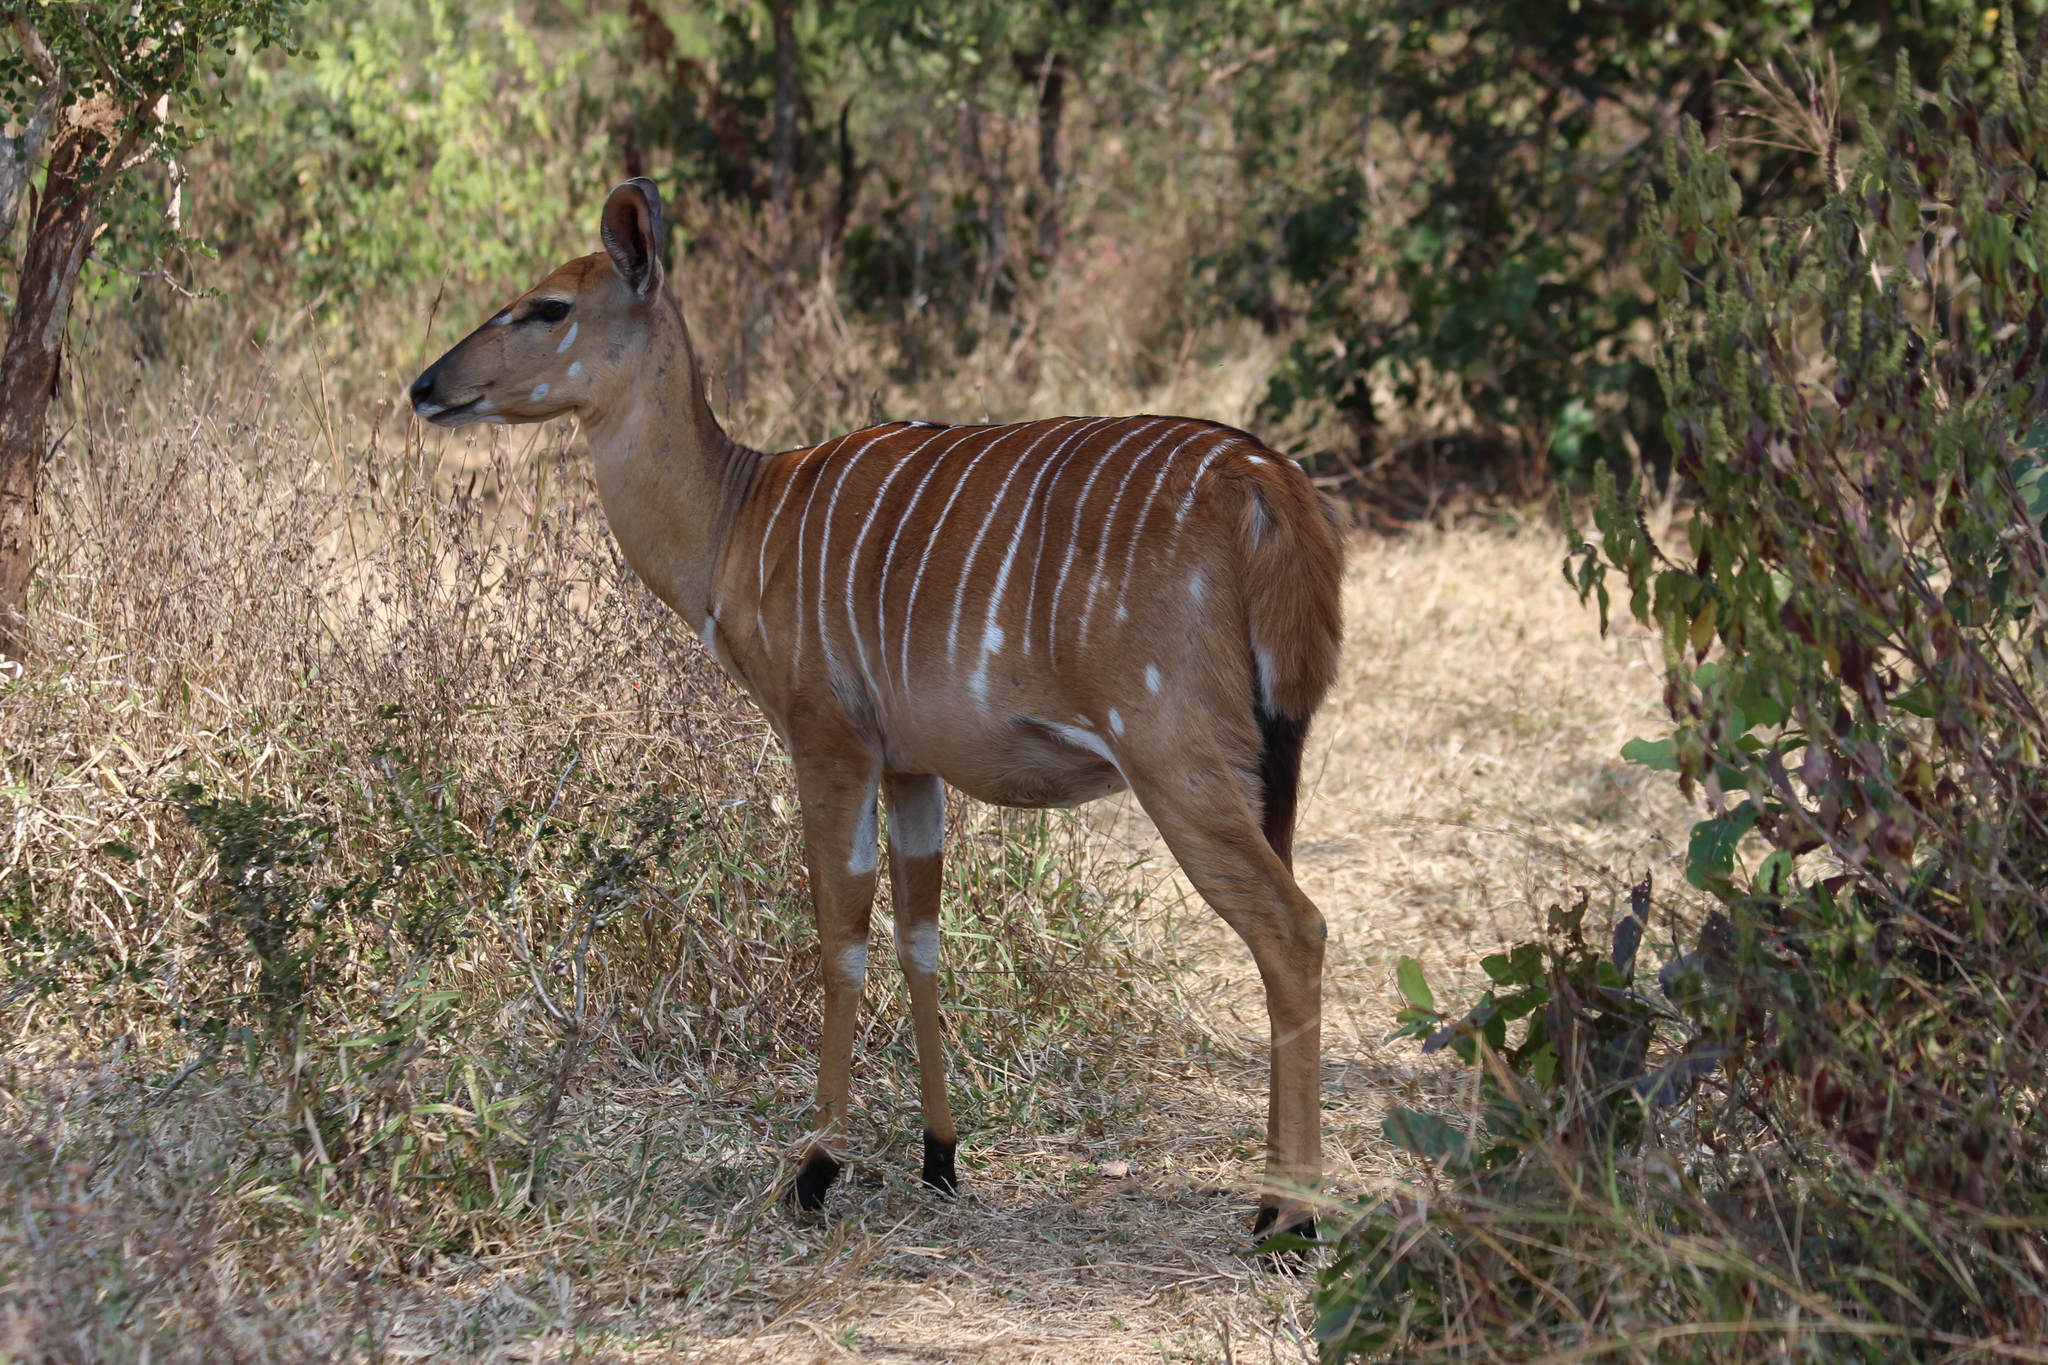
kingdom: Animalia
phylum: Chordata
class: Mammalia
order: Artiodactyla
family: Bovidae
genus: Tragelaphus
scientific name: Tragelaphus angasii
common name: Nyala
